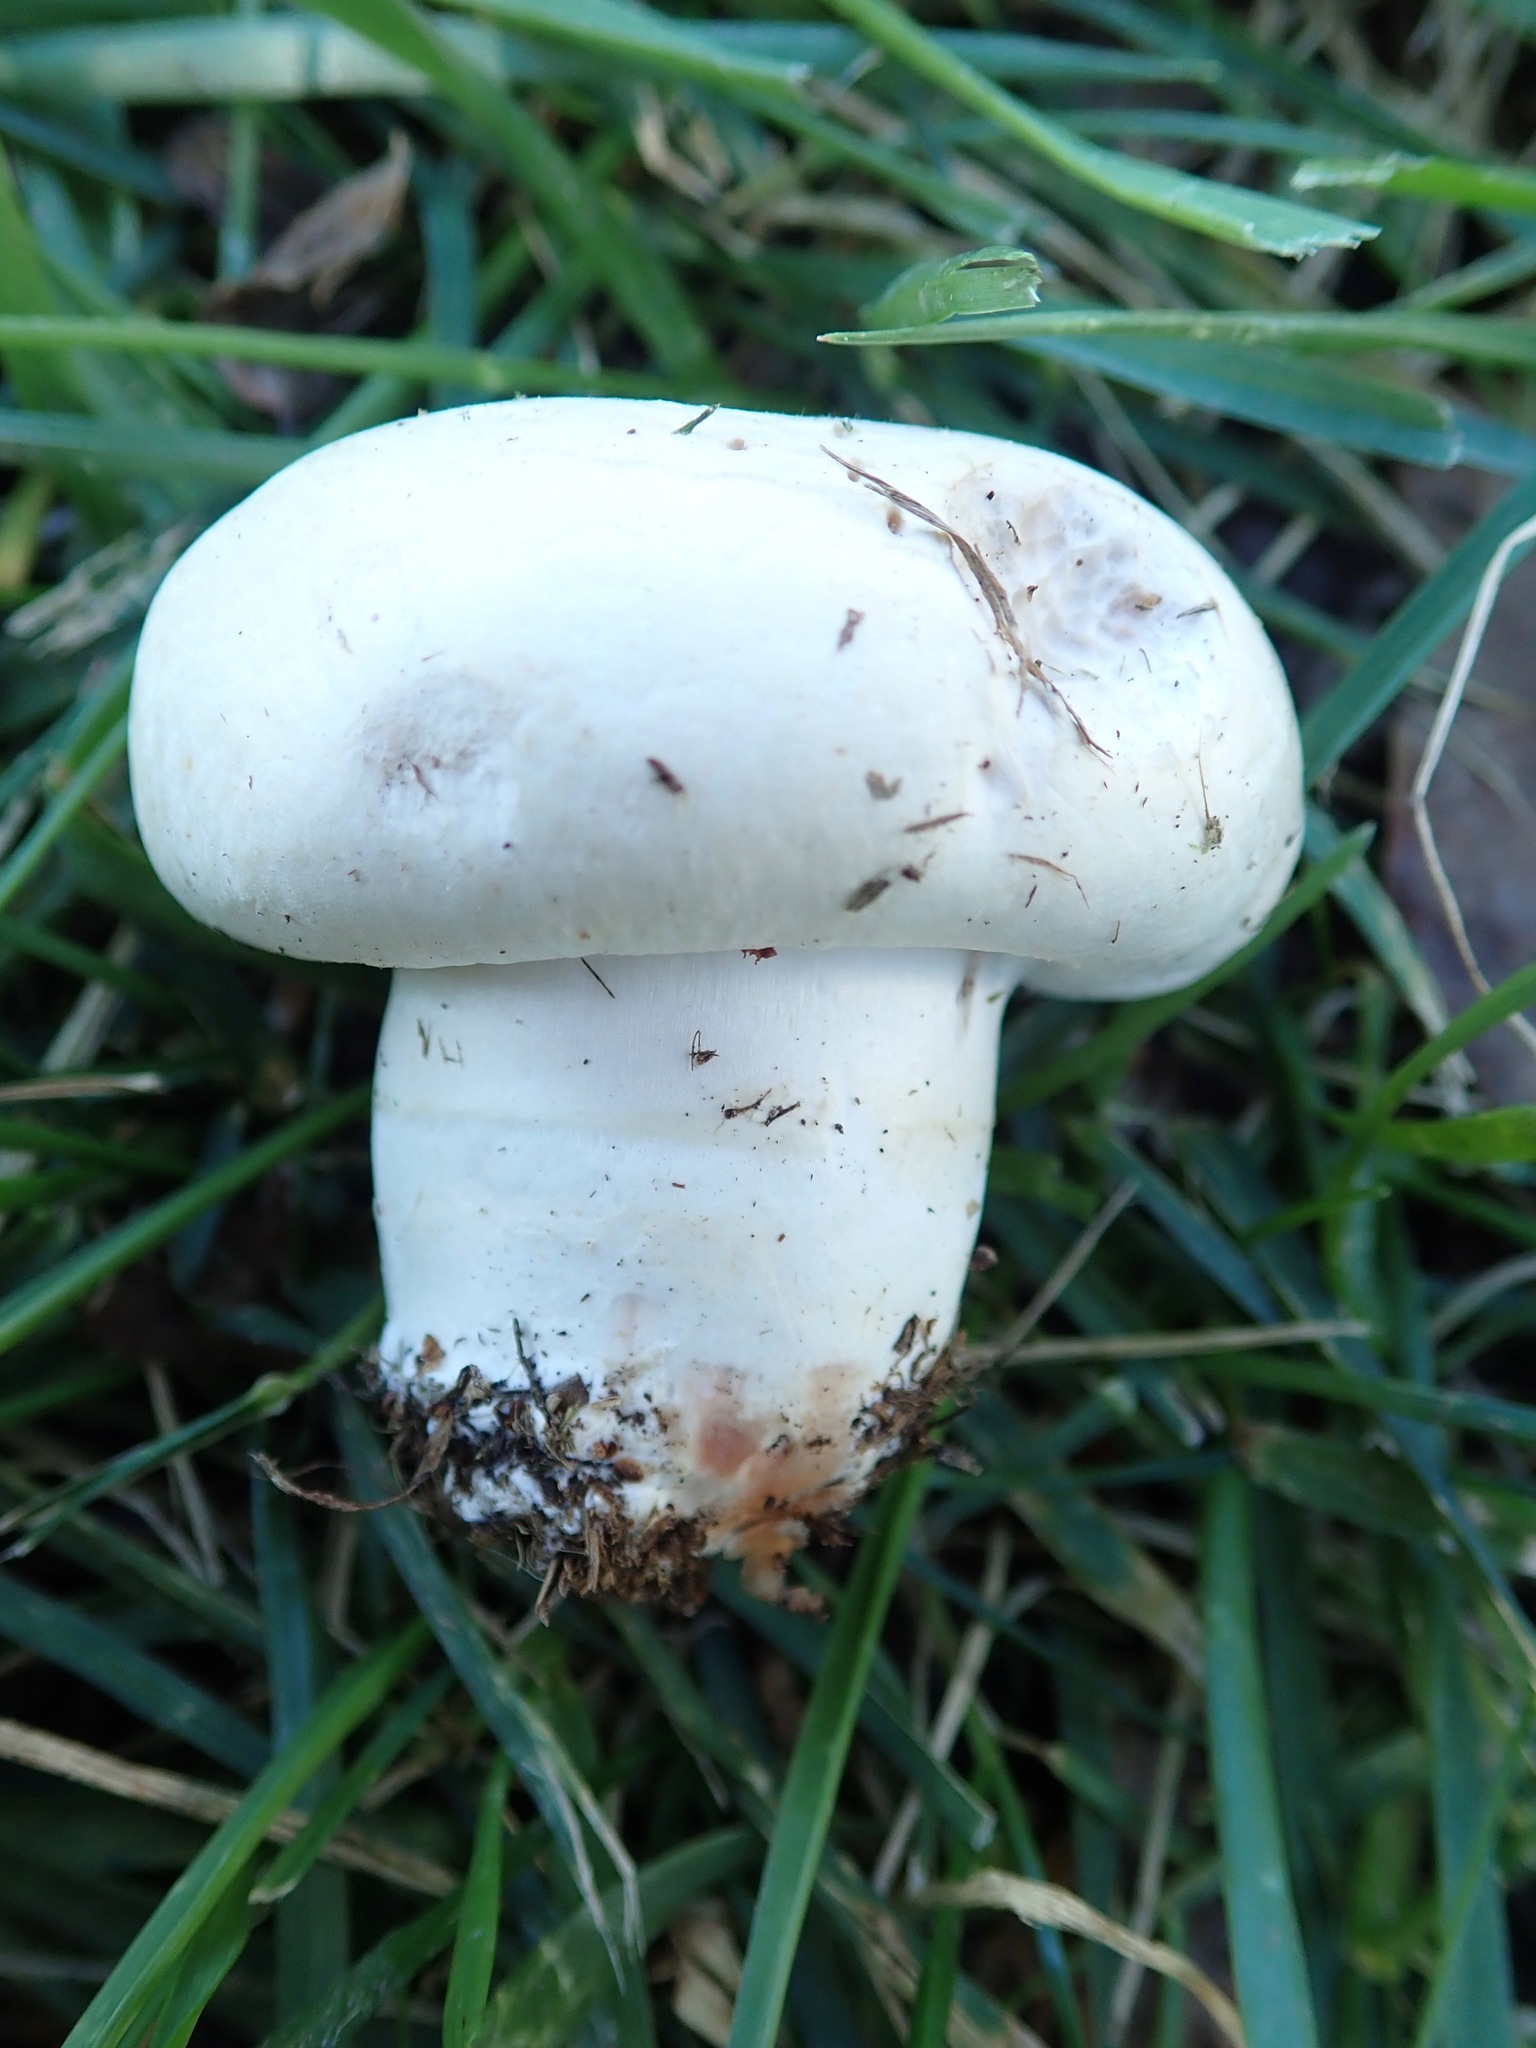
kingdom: Fungi
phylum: Basidiomycota
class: Agaricomycetes
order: Agaricales
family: Agaricaceae
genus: Agaricus
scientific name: Agaricus bernardii
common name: Salty mushroom
